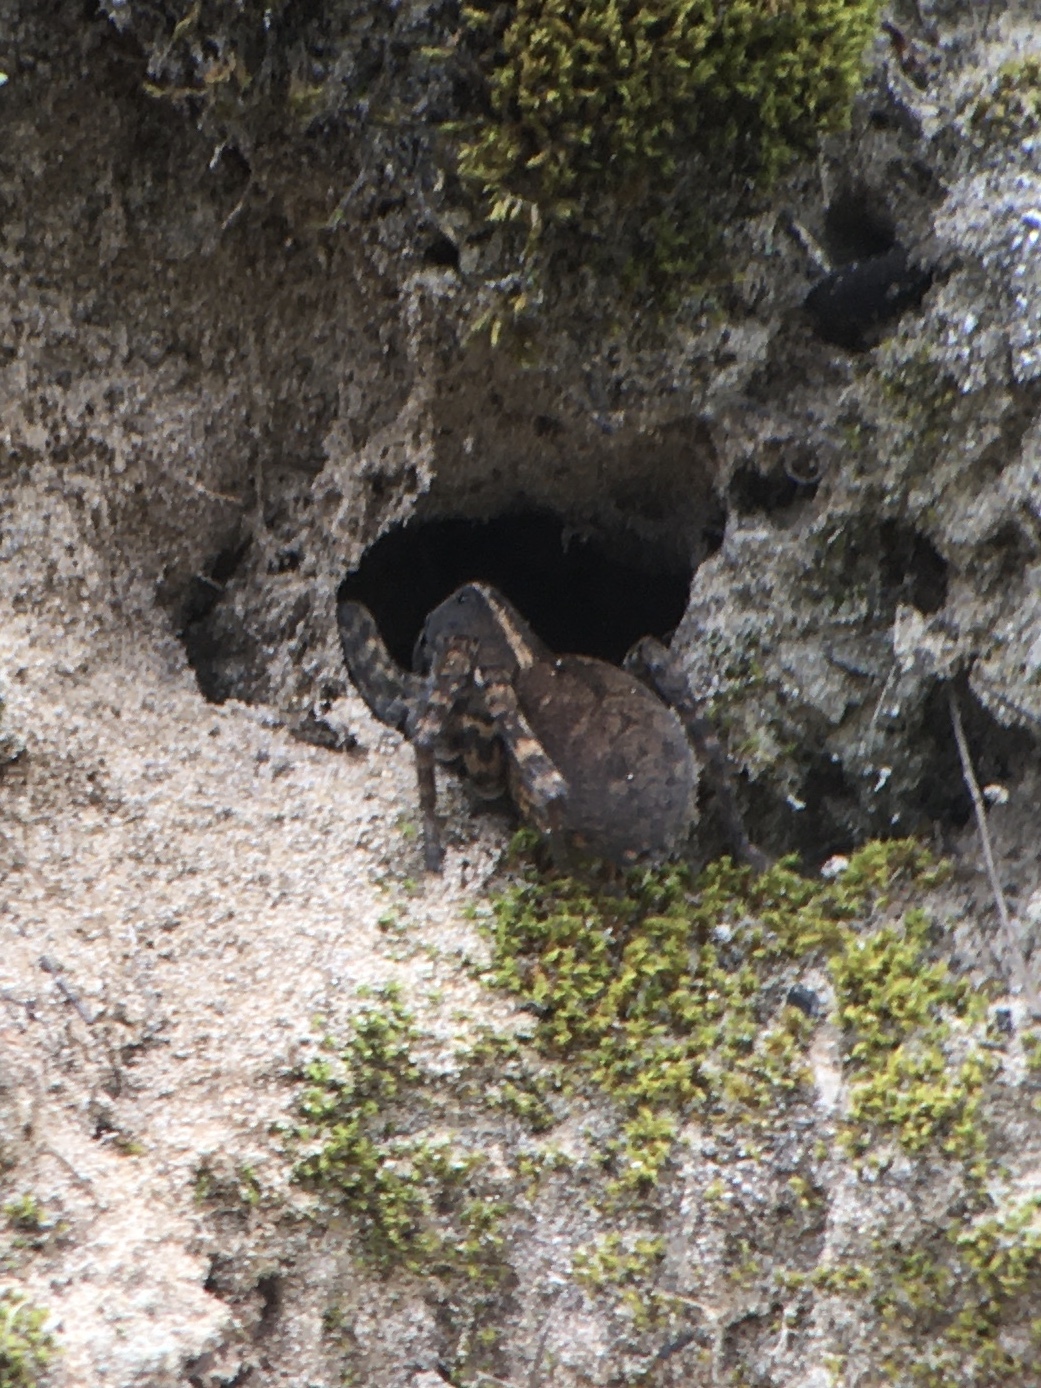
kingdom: Animalia
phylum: Arthropoda
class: Arachnida
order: Araneae
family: Lycosidae
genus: Tigrosa
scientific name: Tigrosa georgicola
